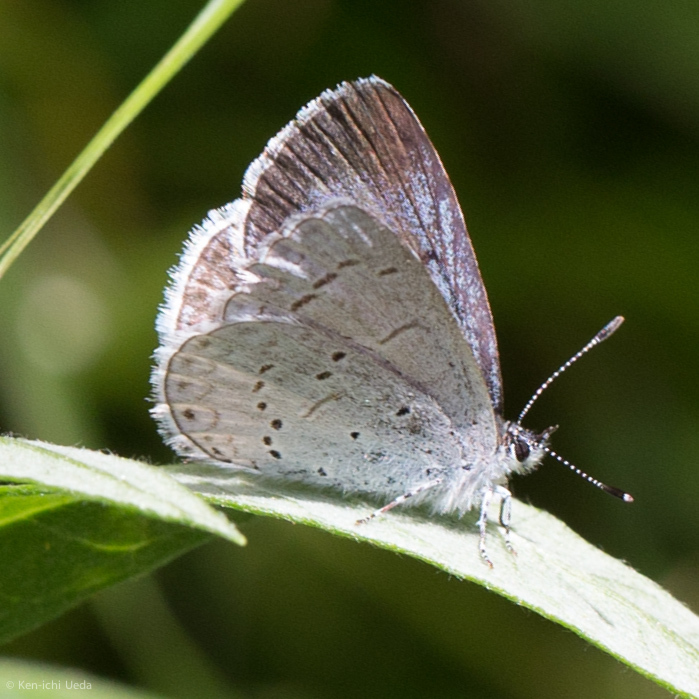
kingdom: Animalia
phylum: Arthropoda
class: Insecta
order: Lepidoptera
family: Lycaenidae
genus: Celastrina
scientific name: Celastrina ladon
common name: Spring azure
